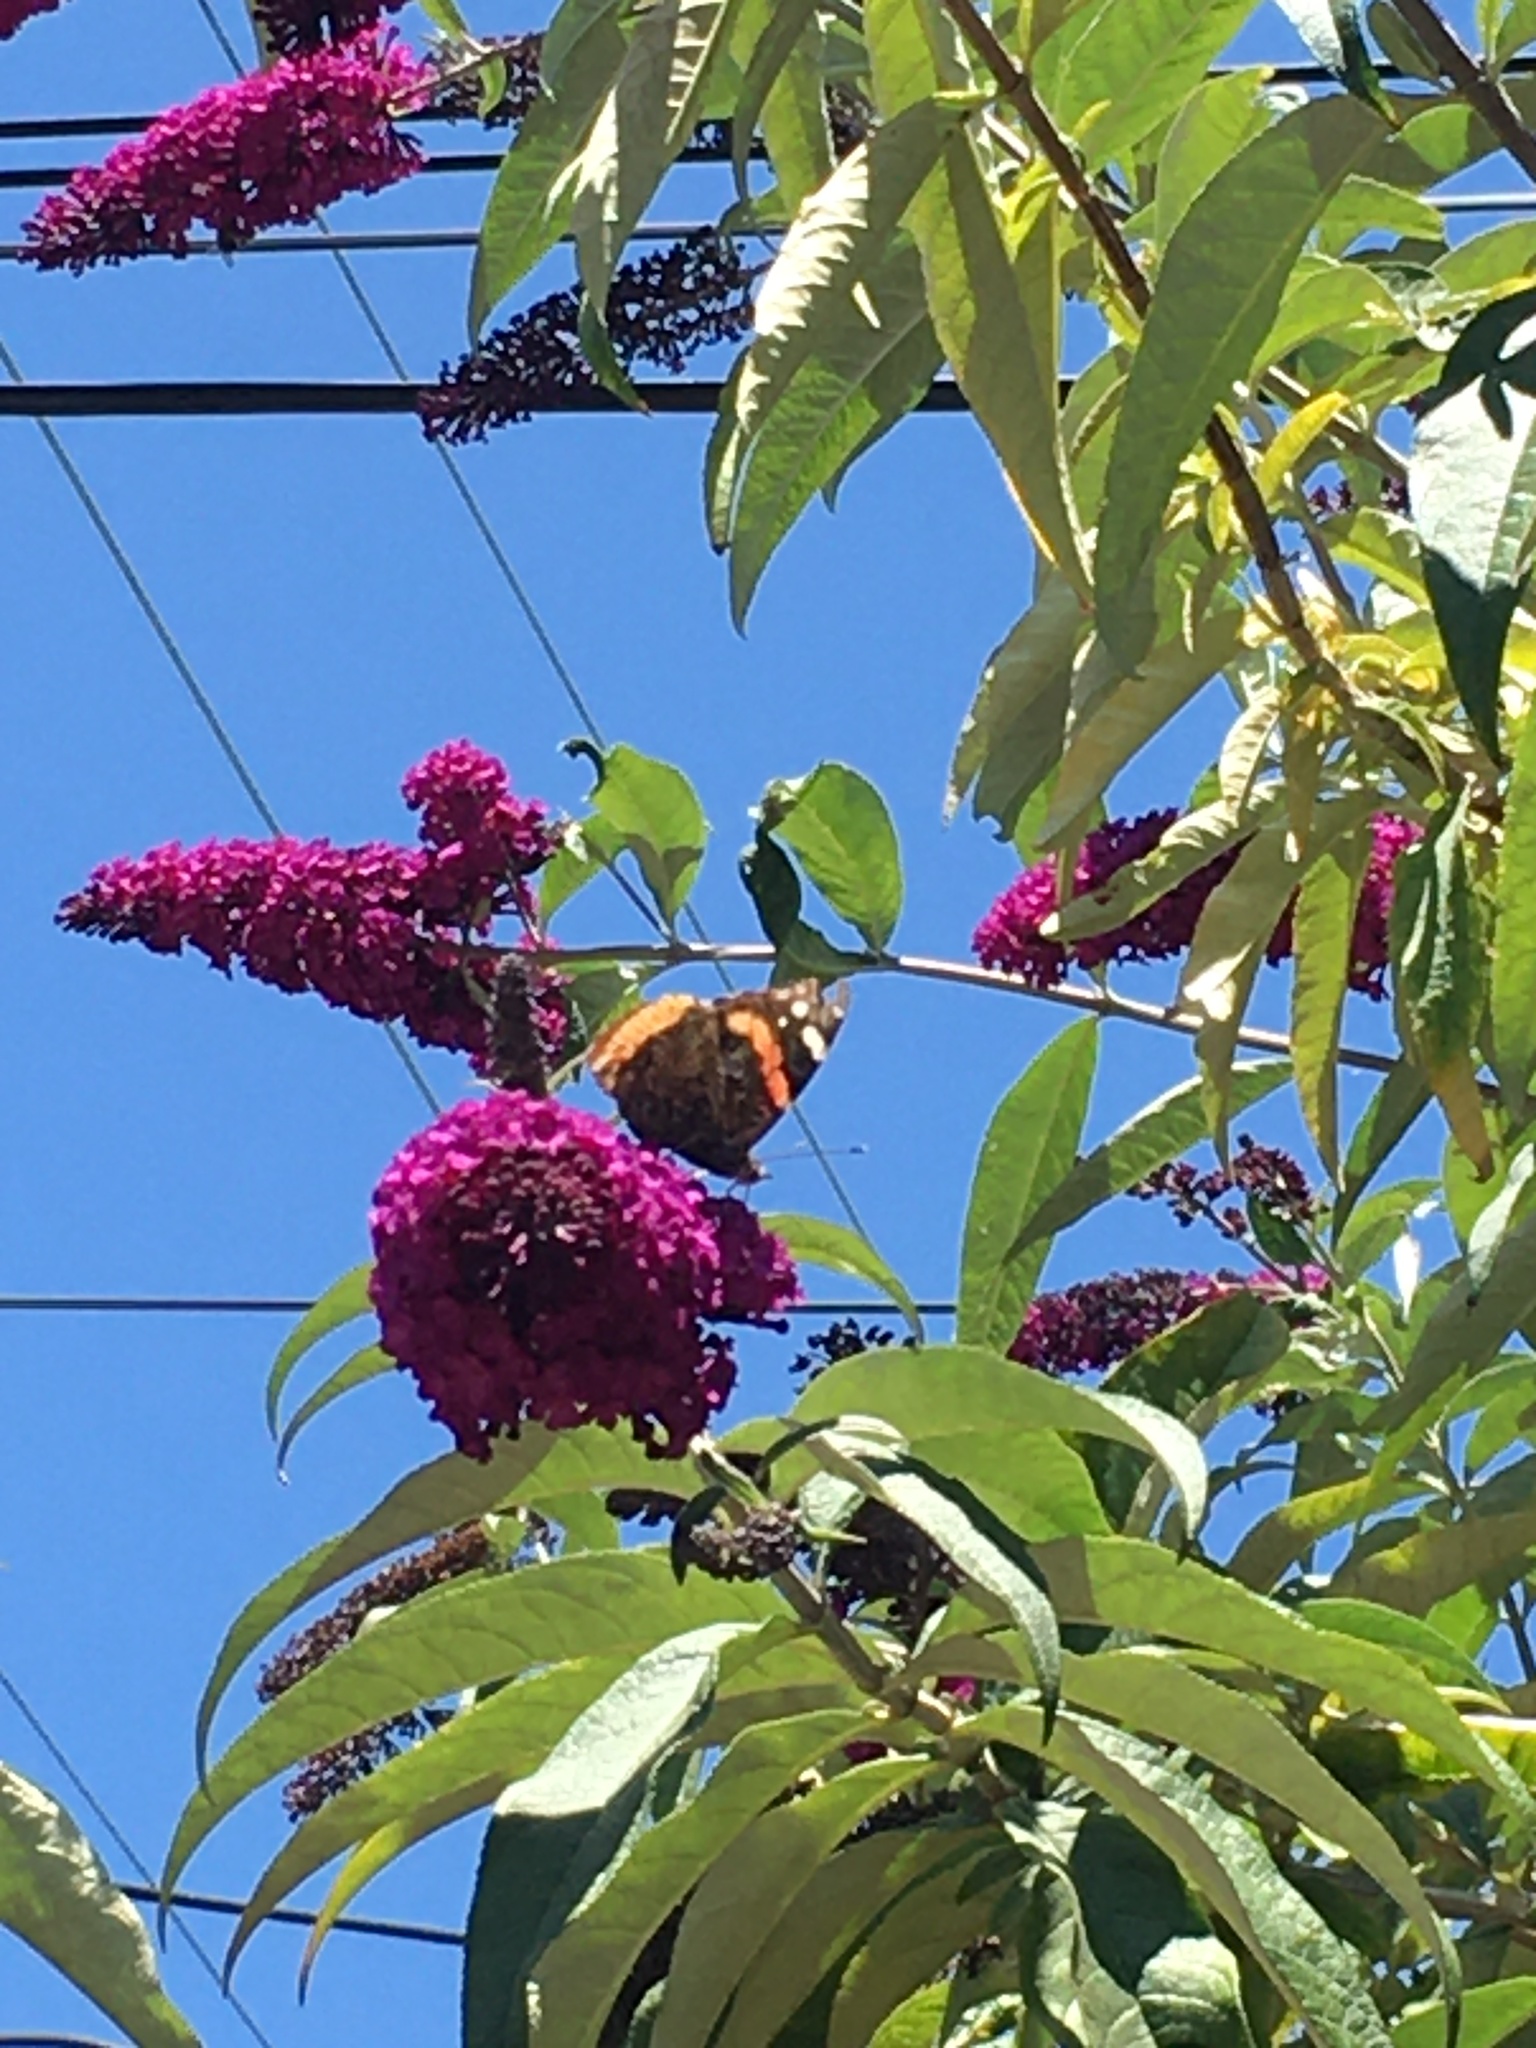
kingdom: Animalia
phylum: Arthropoda
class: Insecta
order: Lepidoptera
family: Nymphalidae
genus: Vanessa
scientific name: Vanessa atalanta
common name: Red admiral
